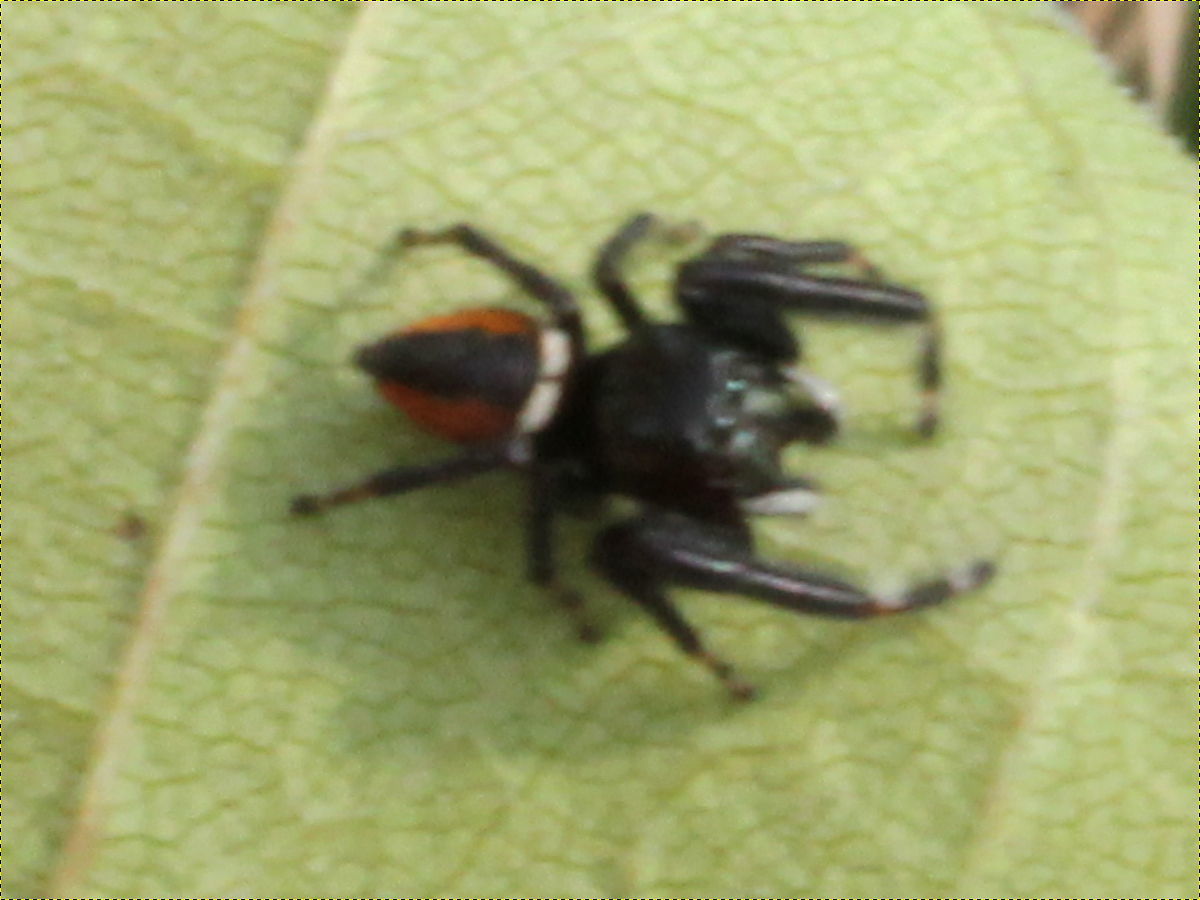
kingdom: Animalia
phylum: Arthropoda
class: Arachnida
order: Araneae
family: Salticidae
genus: Phidippus
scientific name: Phidippus clarus
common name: Brilliant jumping spider
